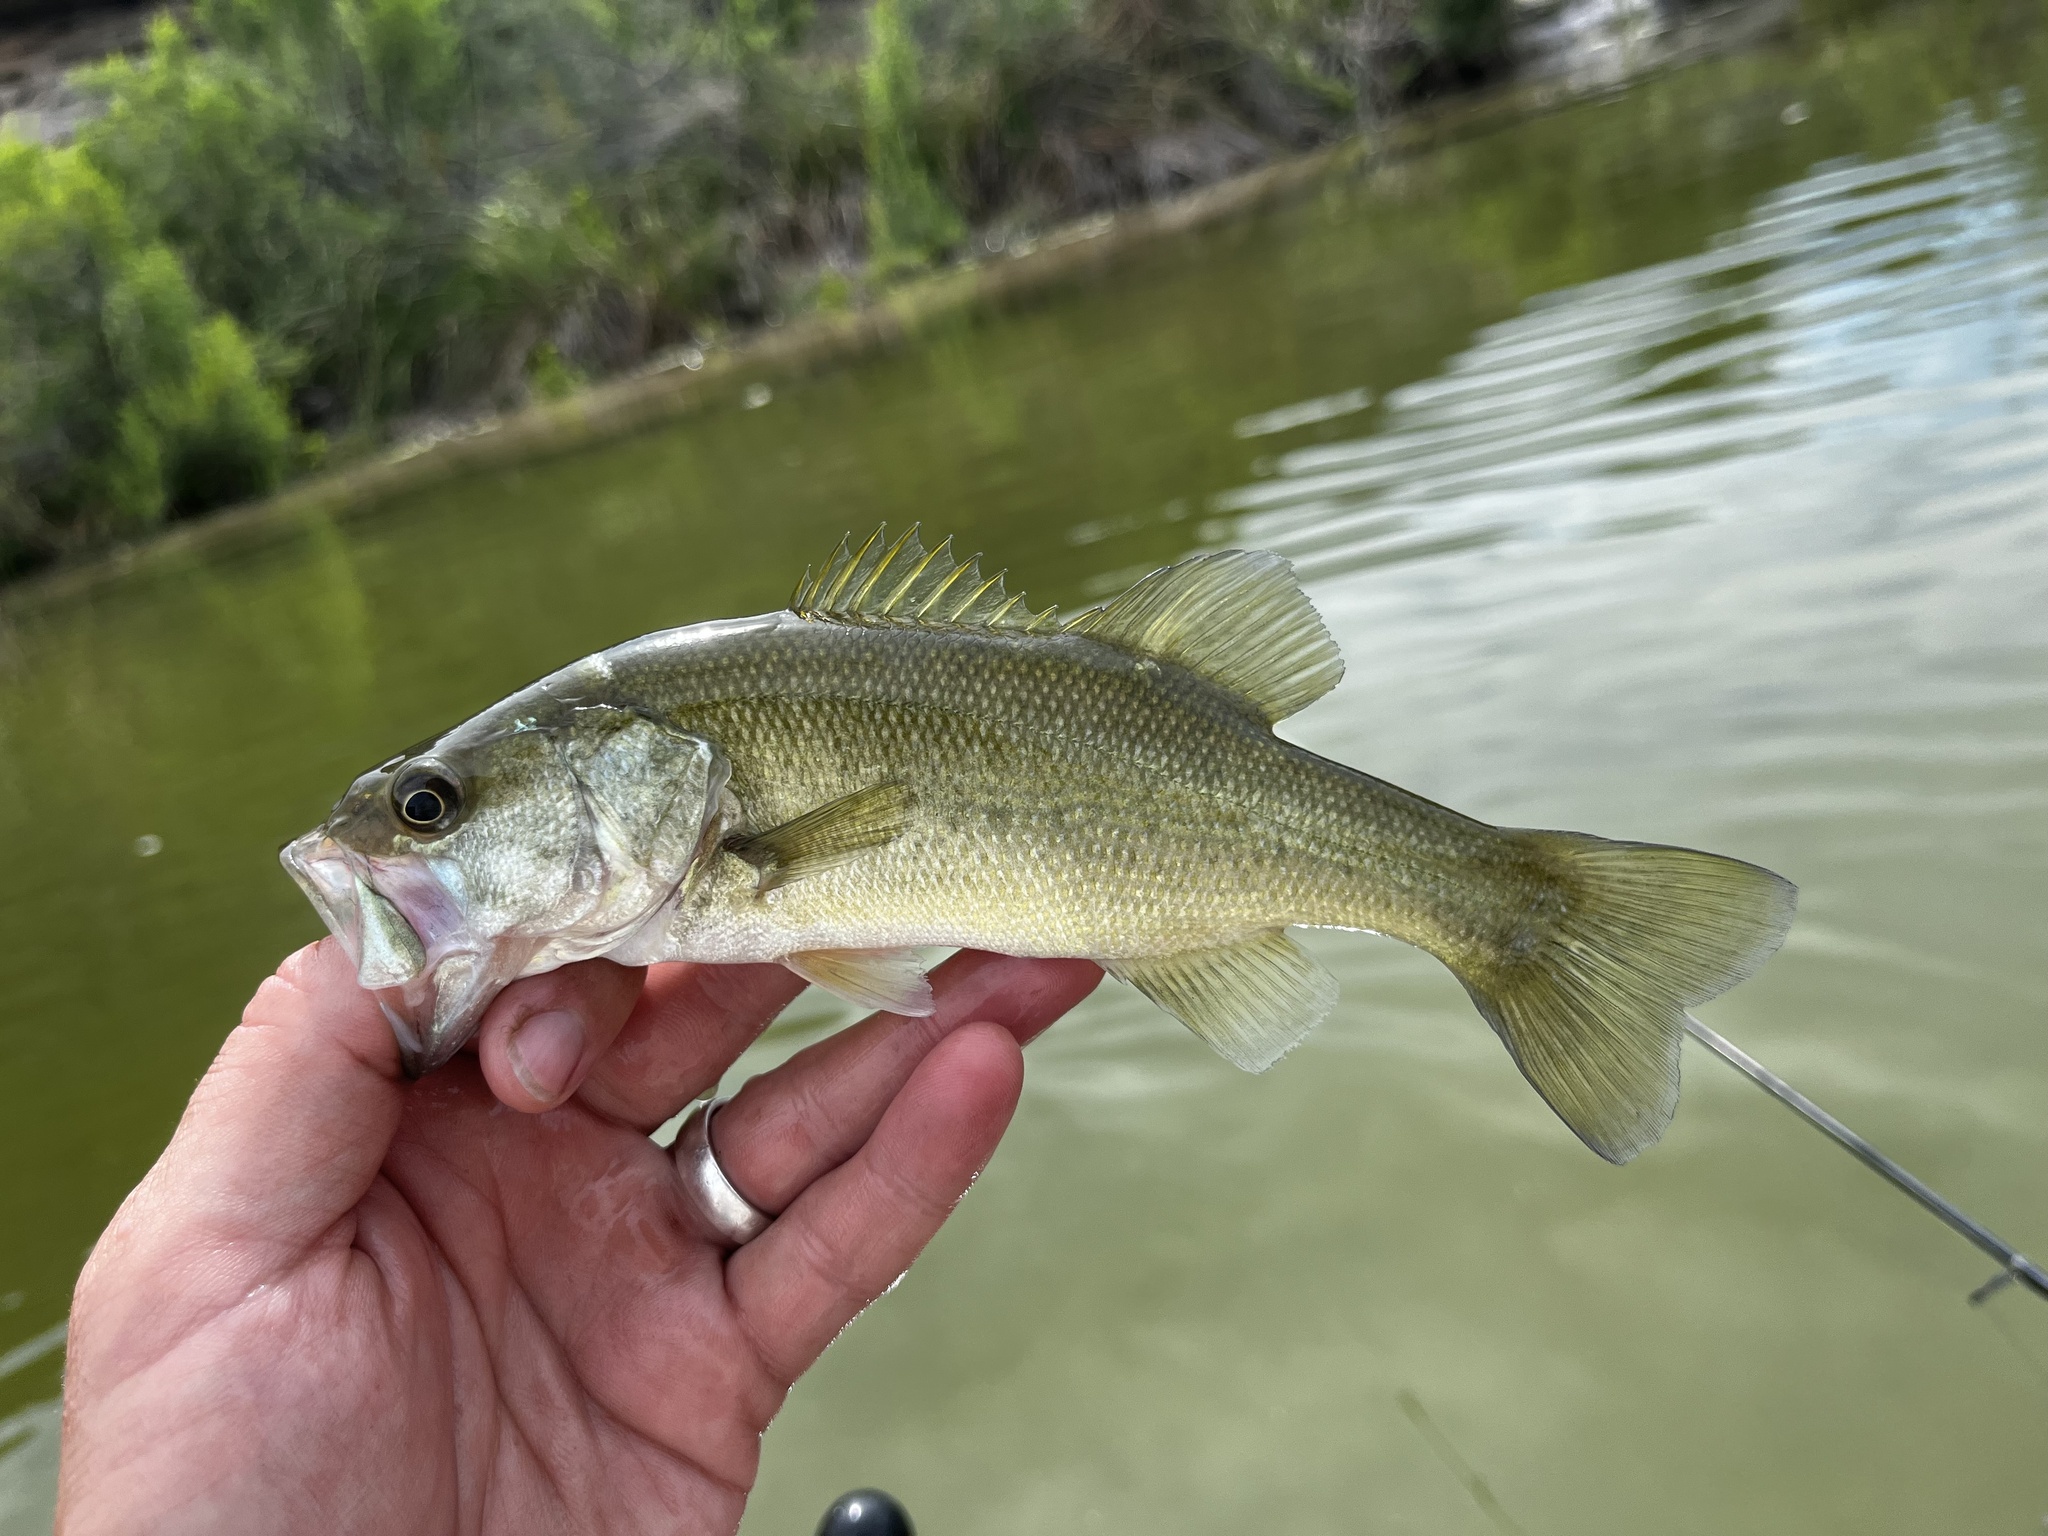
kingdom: Animalia
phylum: Chordata
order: Perciformes
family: Centrarchidae
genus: Micropterus
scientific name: Micropterus
